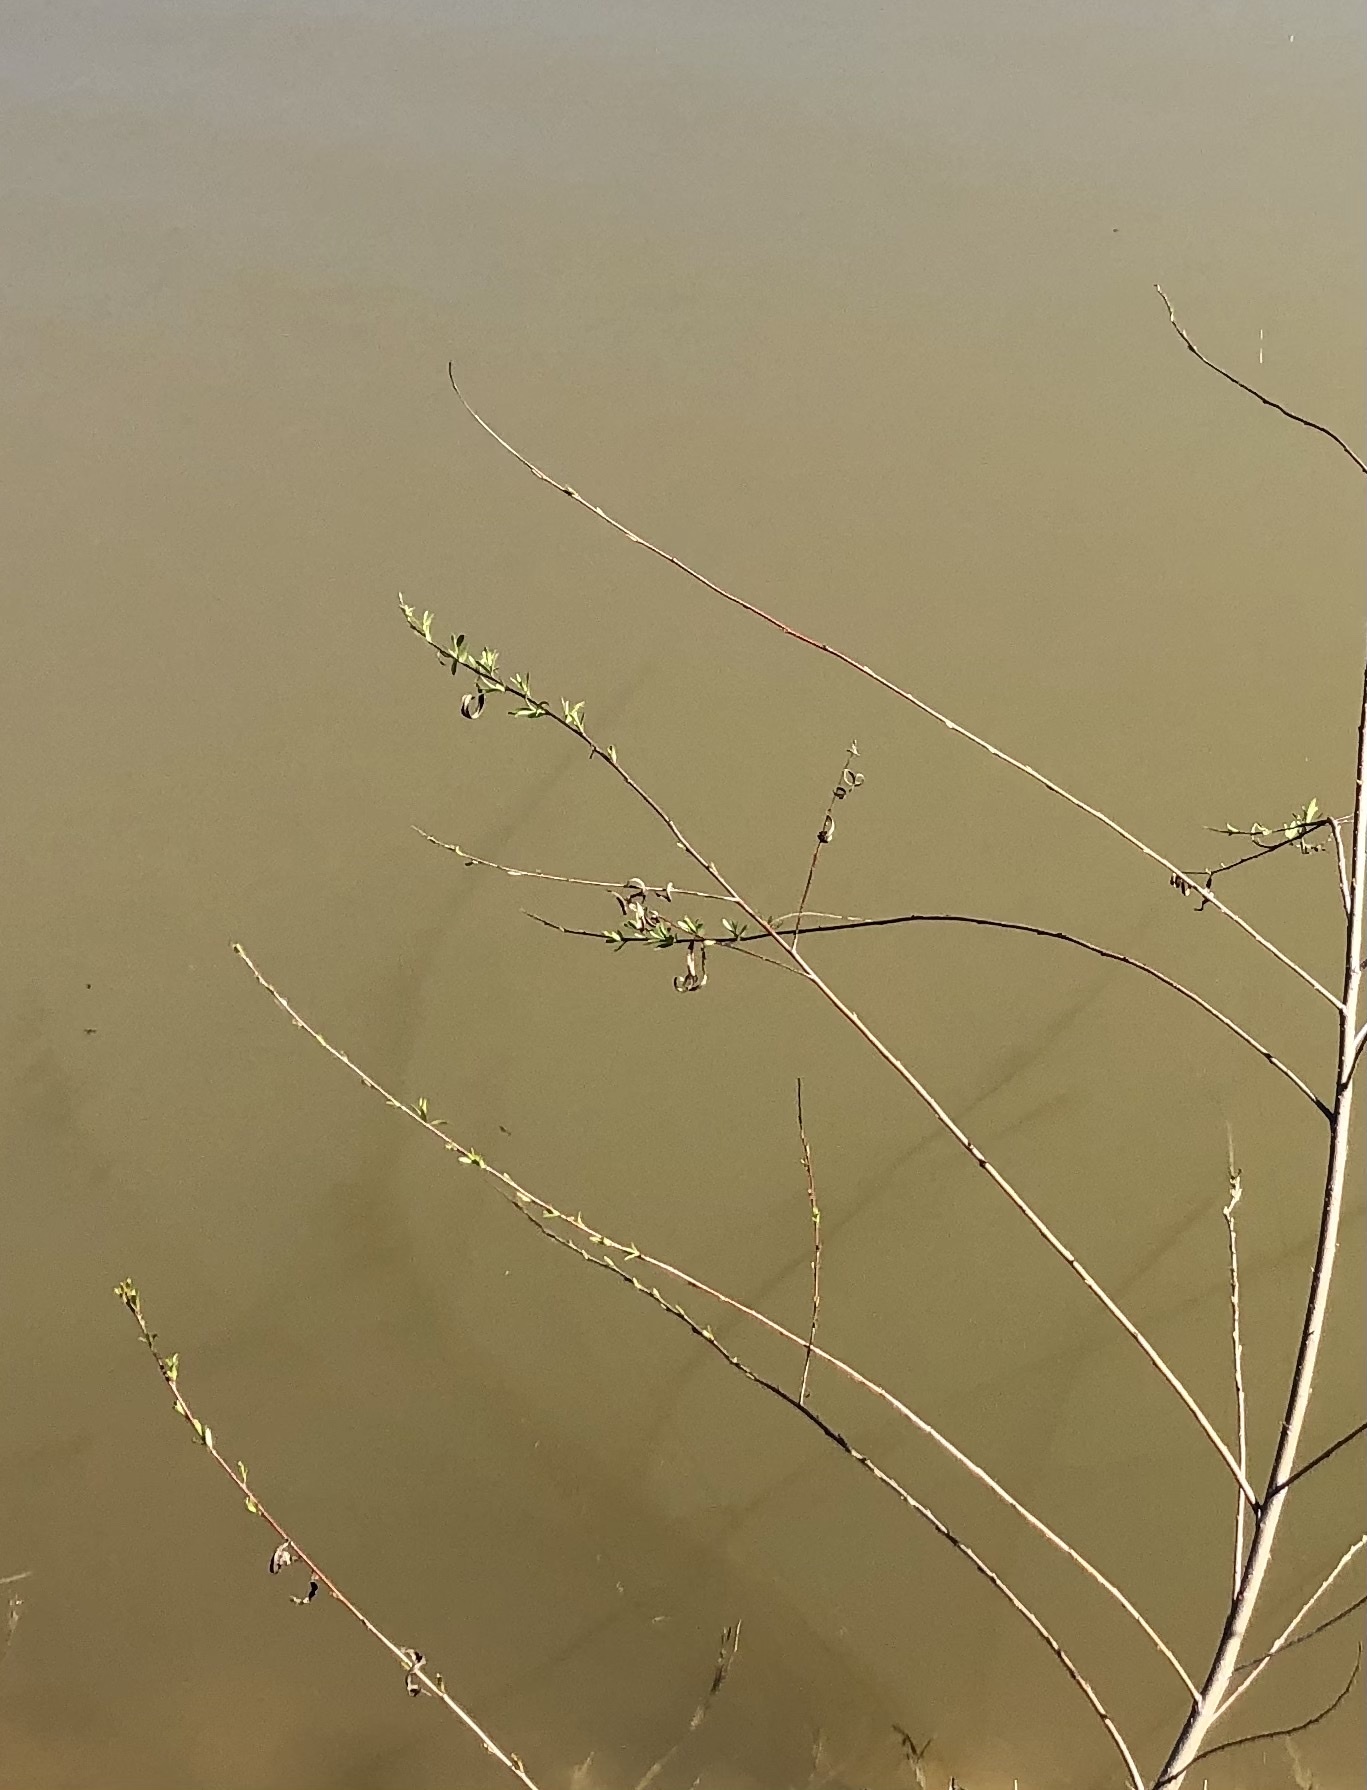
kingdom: Plantae
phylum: Tracheophyta
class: Magnoliopsida
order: Malpighiales
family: Salicaceae
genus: Salix
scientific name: Salix nigra
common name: Black willow
